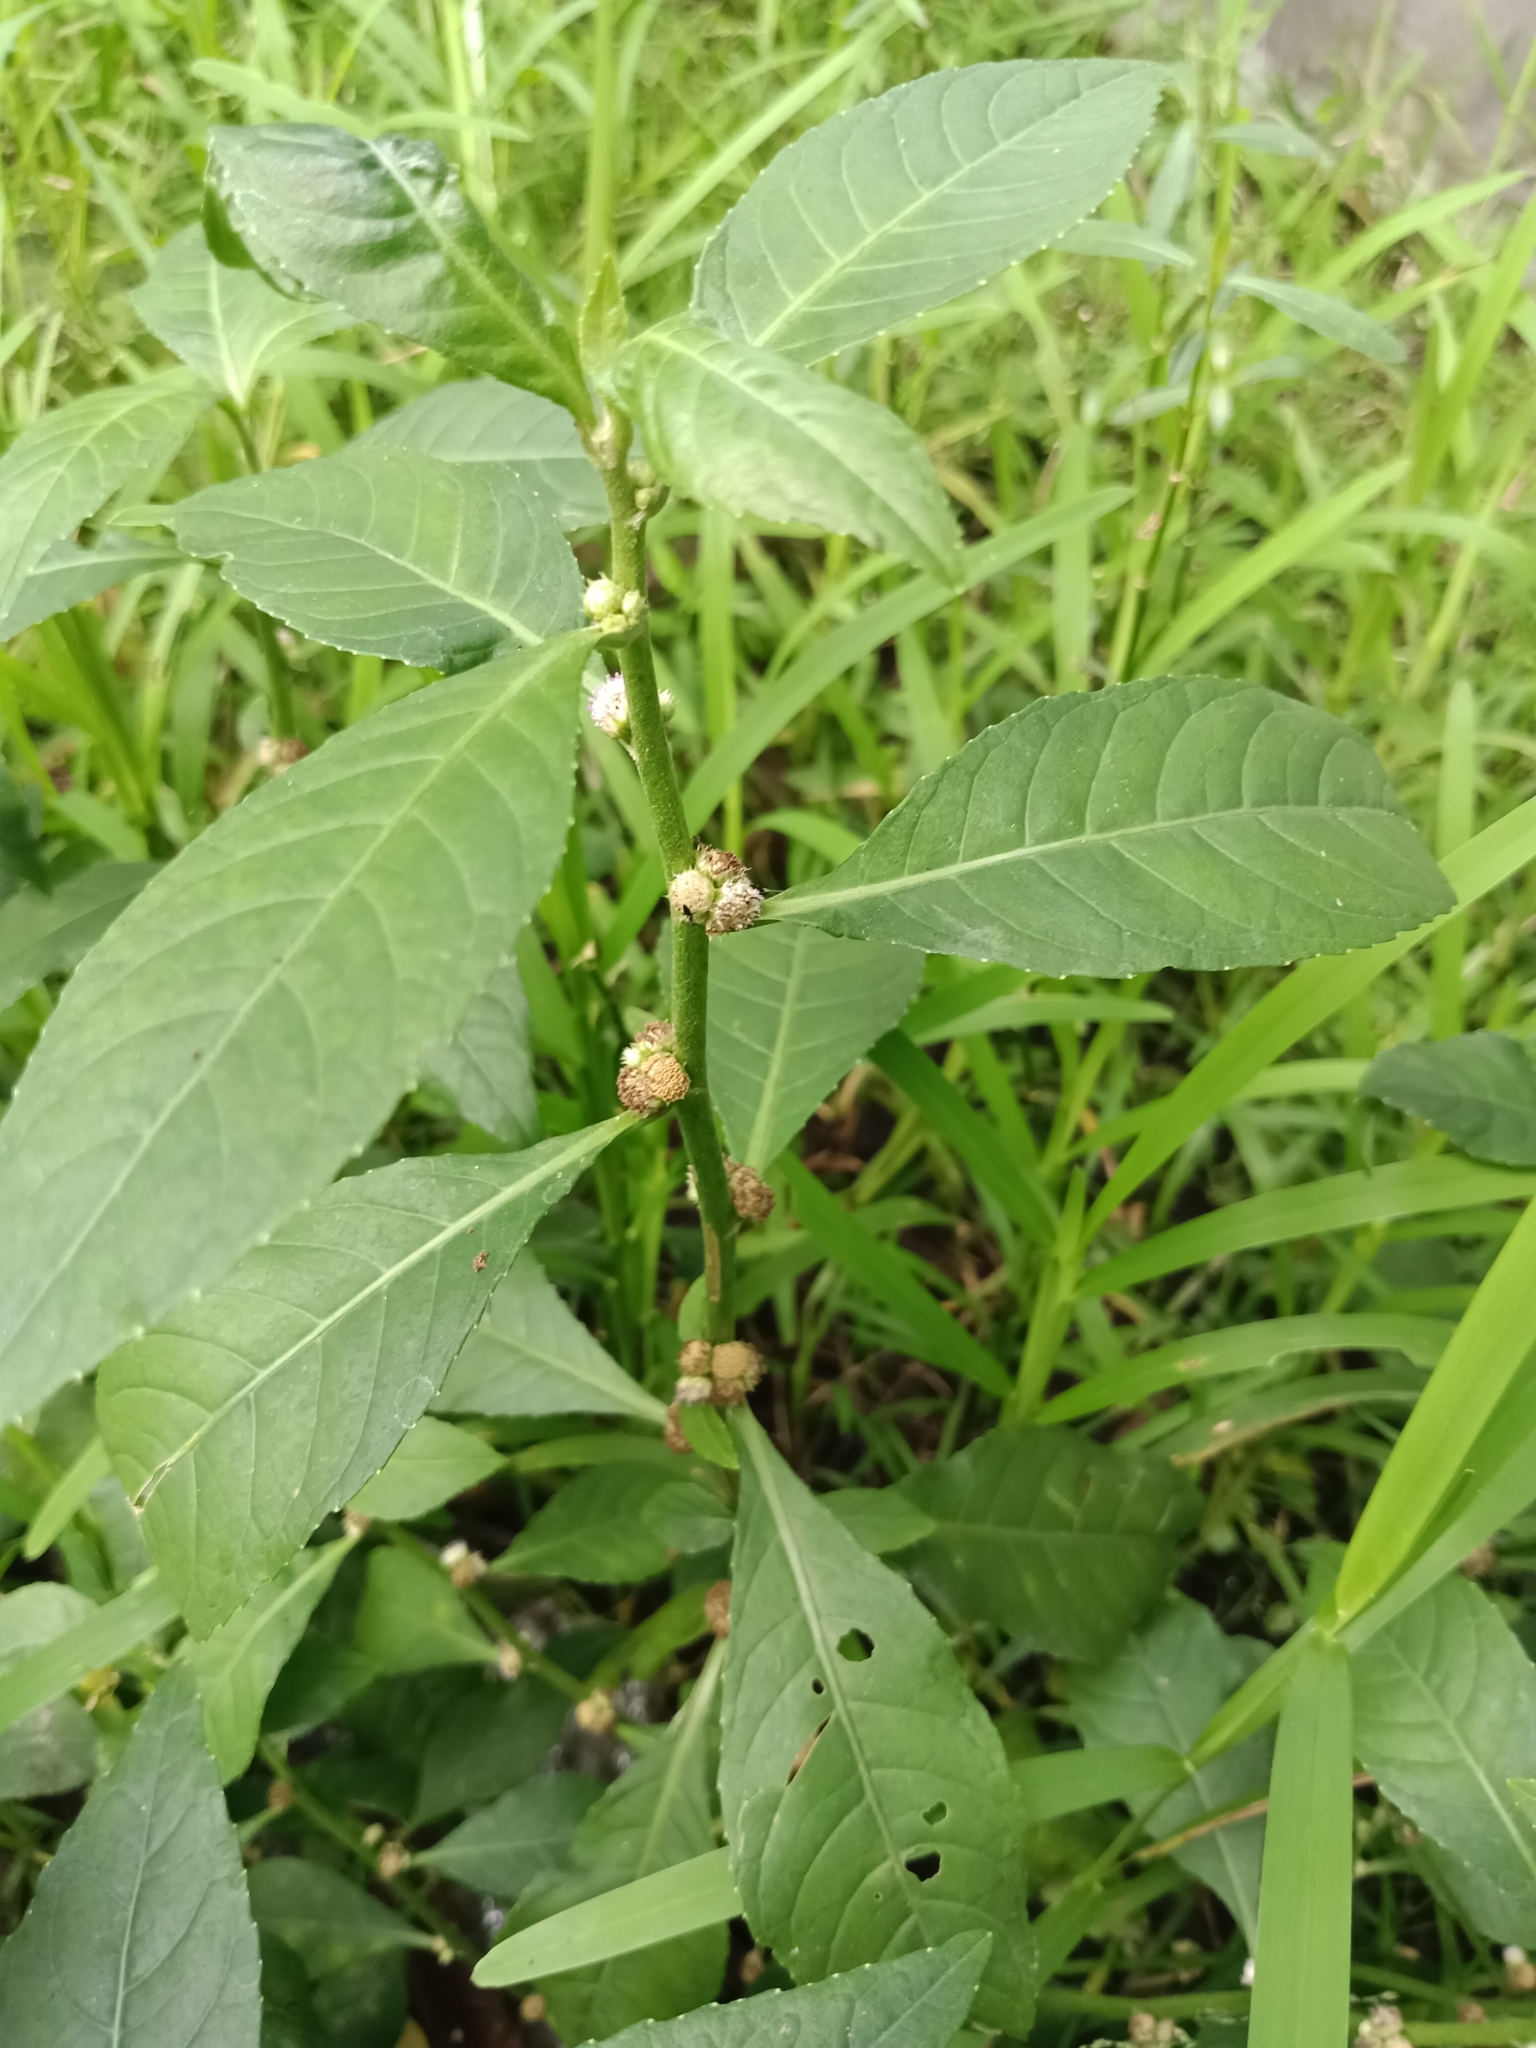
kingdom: Plantae
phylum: Tracheophyta
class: Magnoliopsida
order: Asterales
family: Asteraceae
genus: Struchium
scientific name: Struchium sparganophorum
